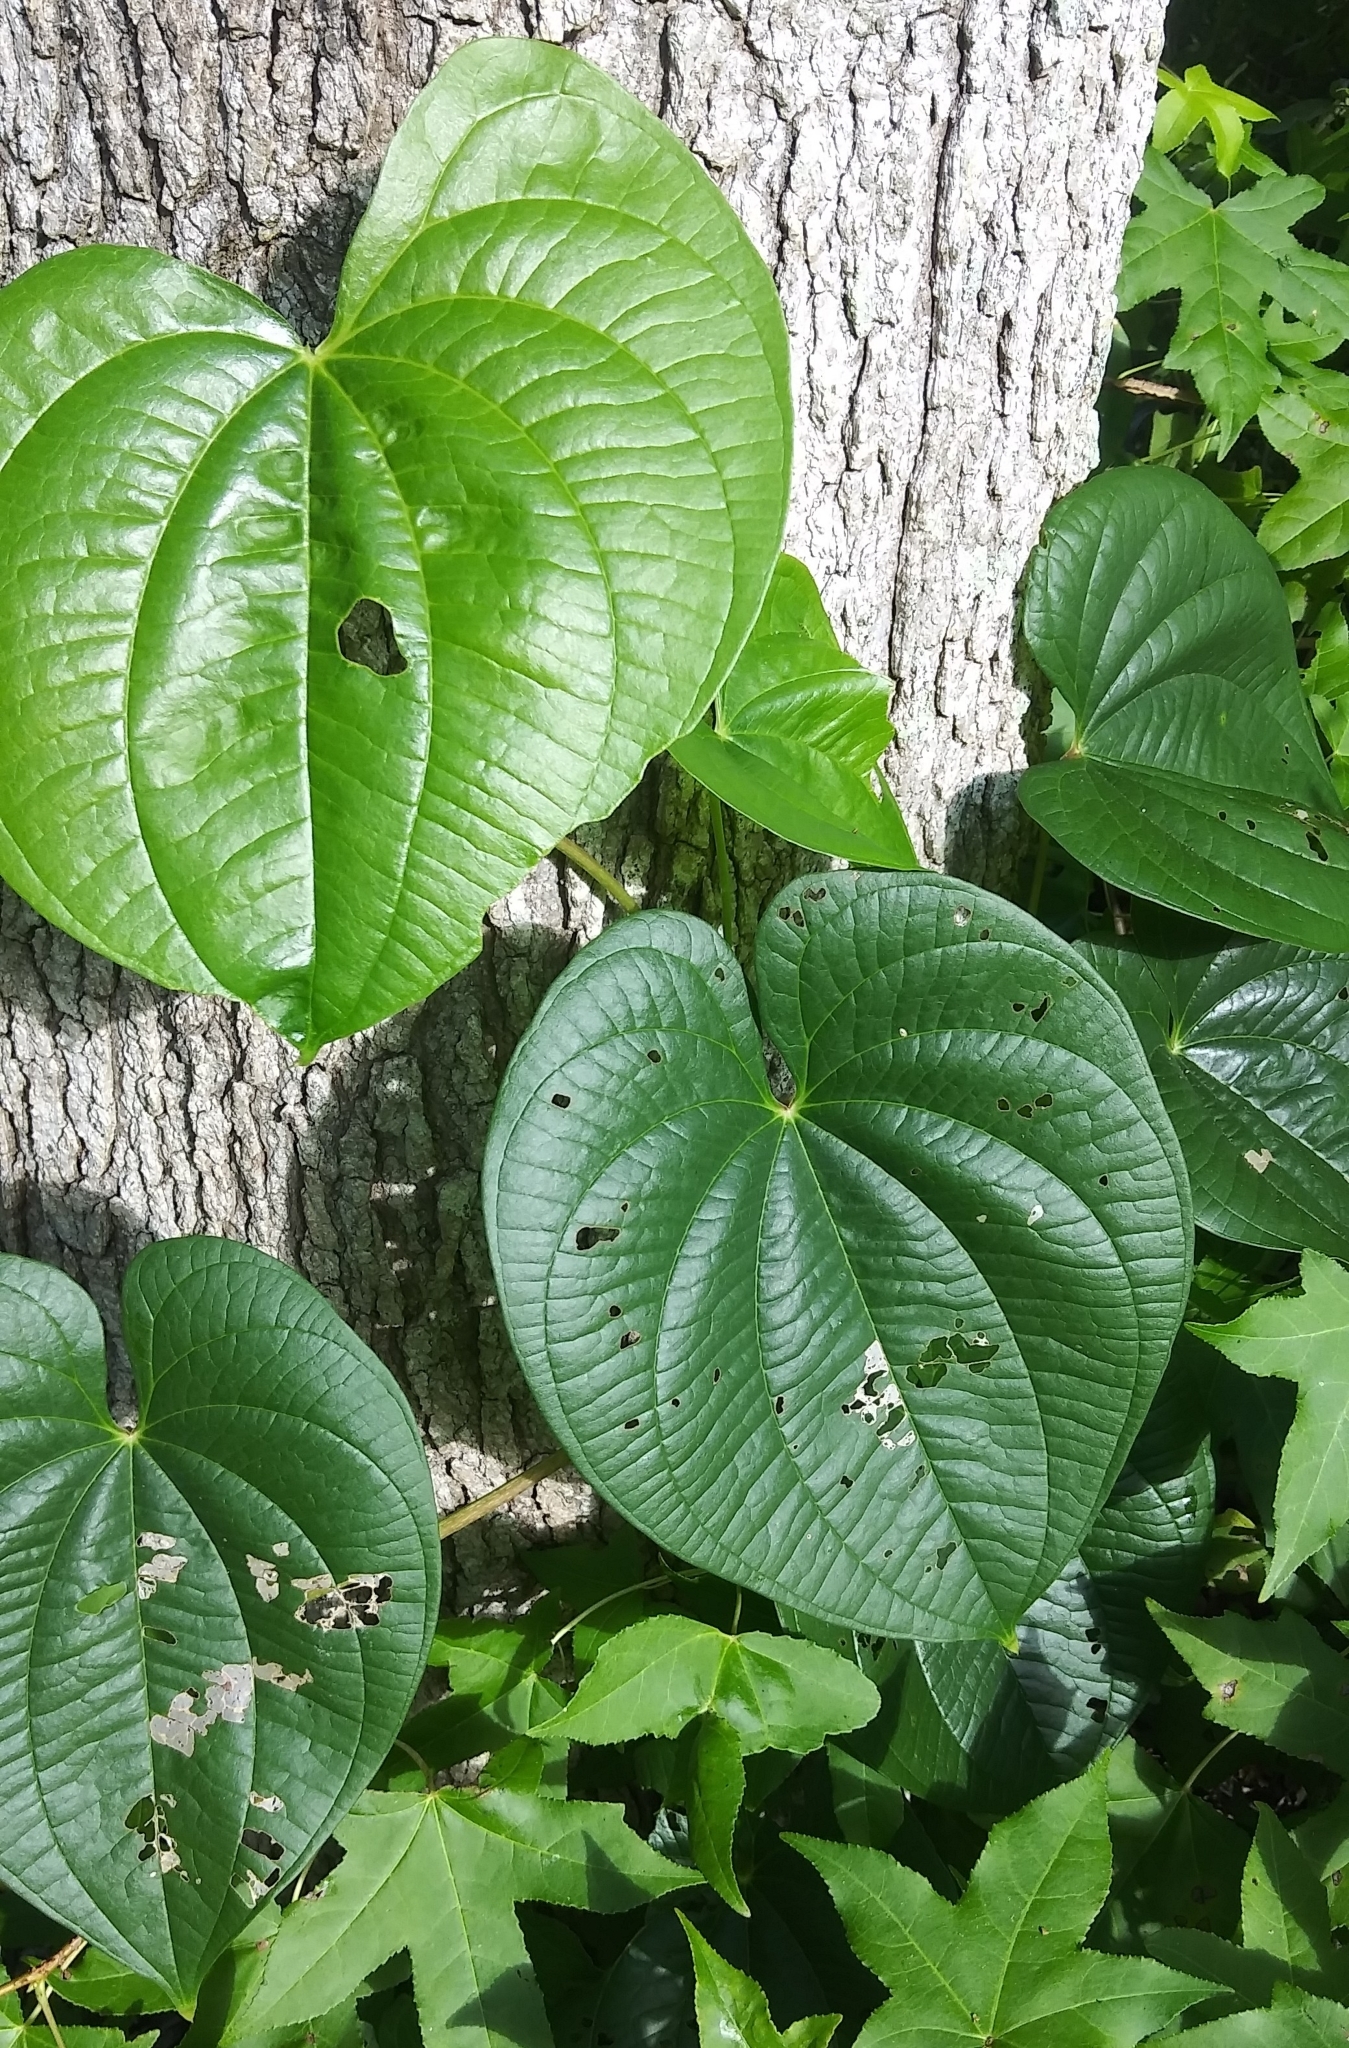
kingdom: Plantae
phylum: Tracheophyta
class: Liliopsida
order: Dioscoreales
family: Dioscoreaceae
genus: Dioscorea
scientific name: Dioscorea bulbifera
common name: Air yam
